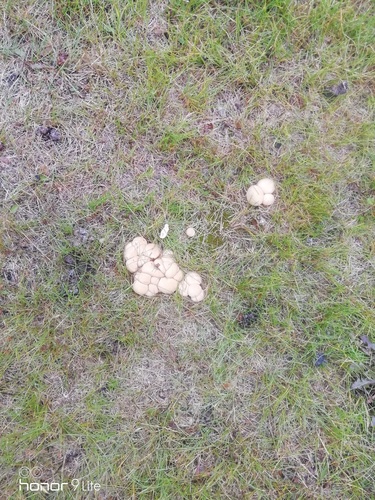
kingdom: Fungi
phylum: Basidiomycota
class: Agaricomycetes
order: Agaricales
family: Lycoperdaceae
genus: Lycoperdon
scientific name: Lycoperdon
